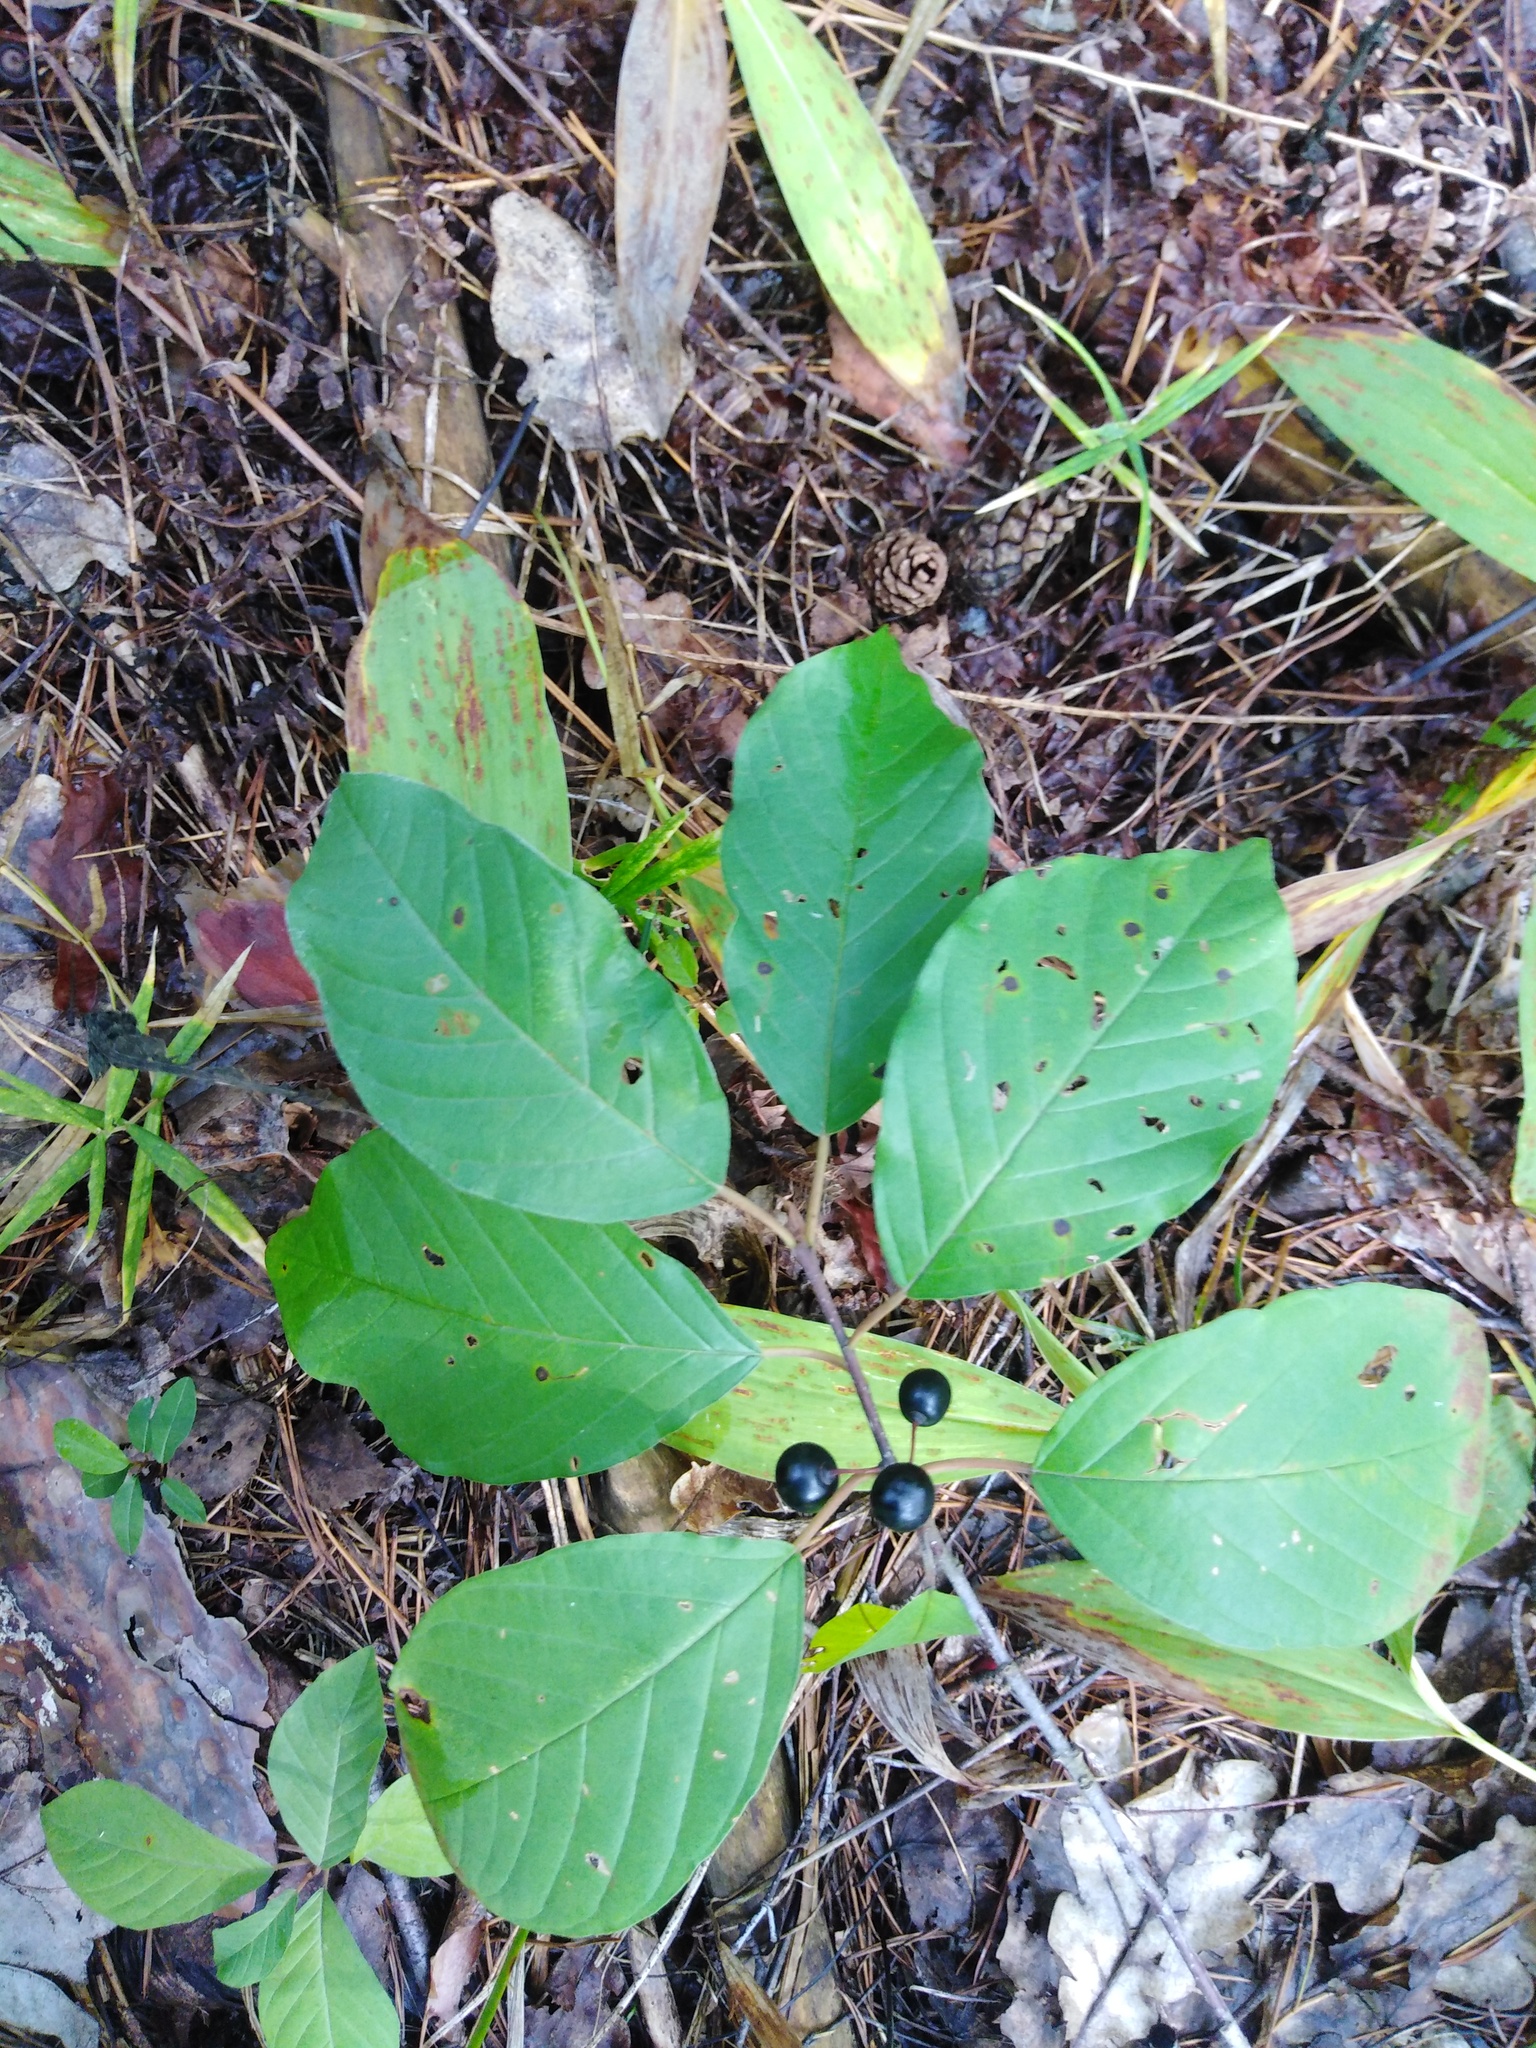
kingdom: Plantae
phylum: Tracheophyta
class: Magnoliopsida
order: Rosales
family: Rhamnaceae
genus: Frangula
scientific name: Frangula alnus
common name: Alder buckthorn
